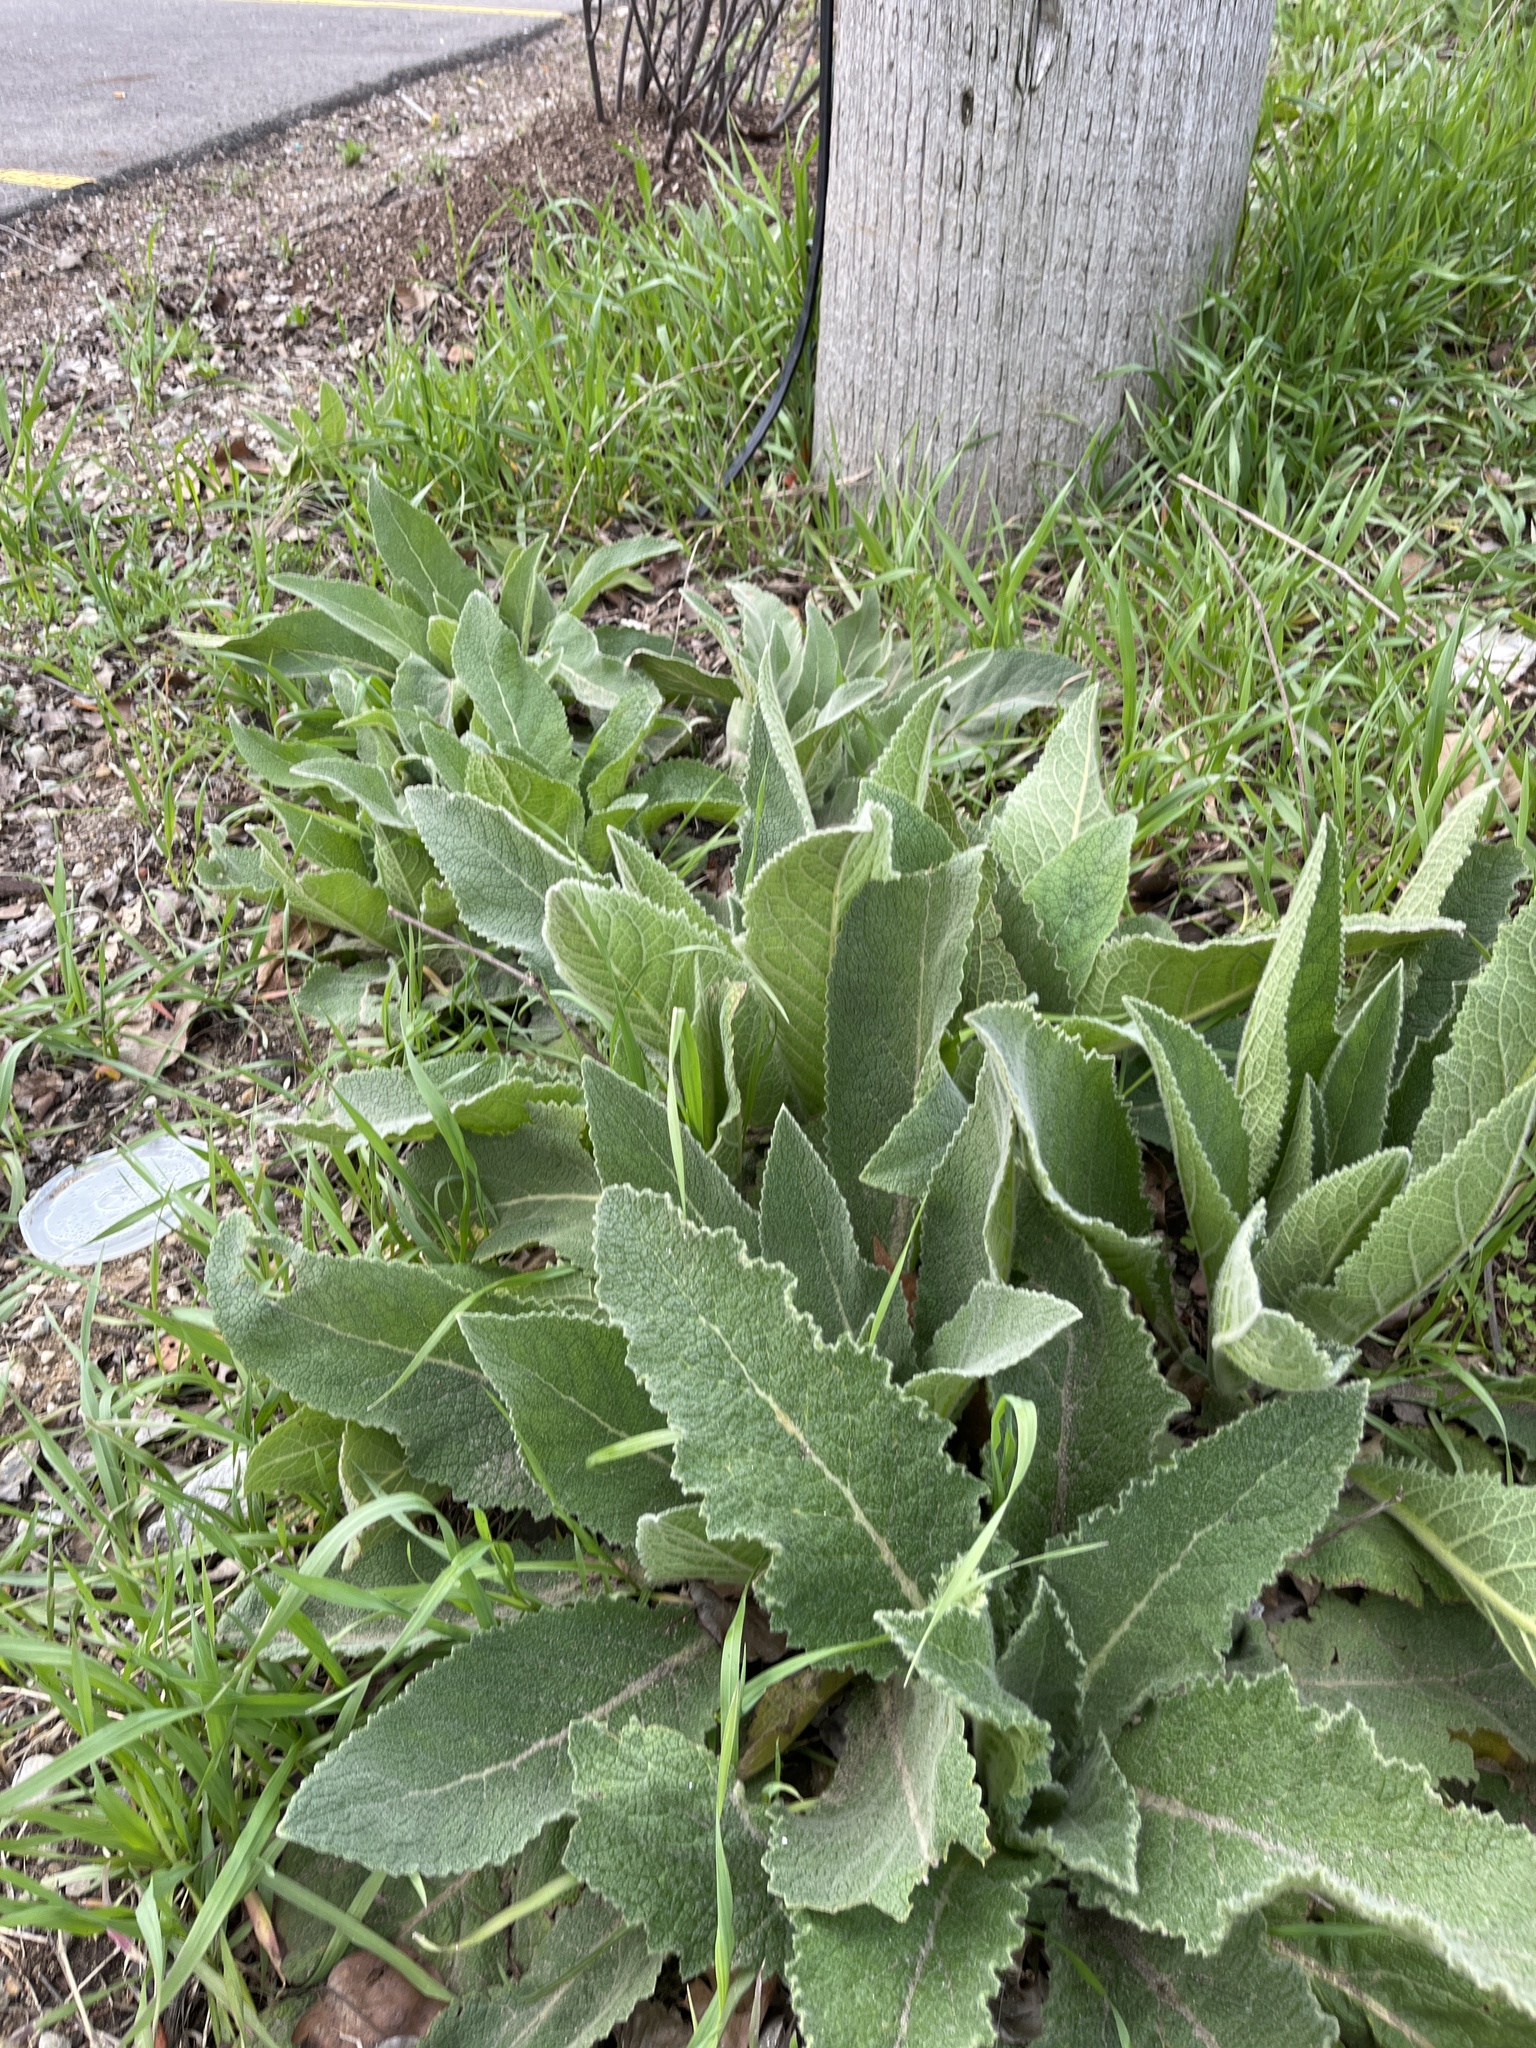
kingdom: Plantae
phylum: Tracheophyta
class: Magnoliopsida
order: Lamiales
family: Scrophulariaceae
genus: Verbascum
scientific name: Verbascum thapsus
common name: Common mullein
